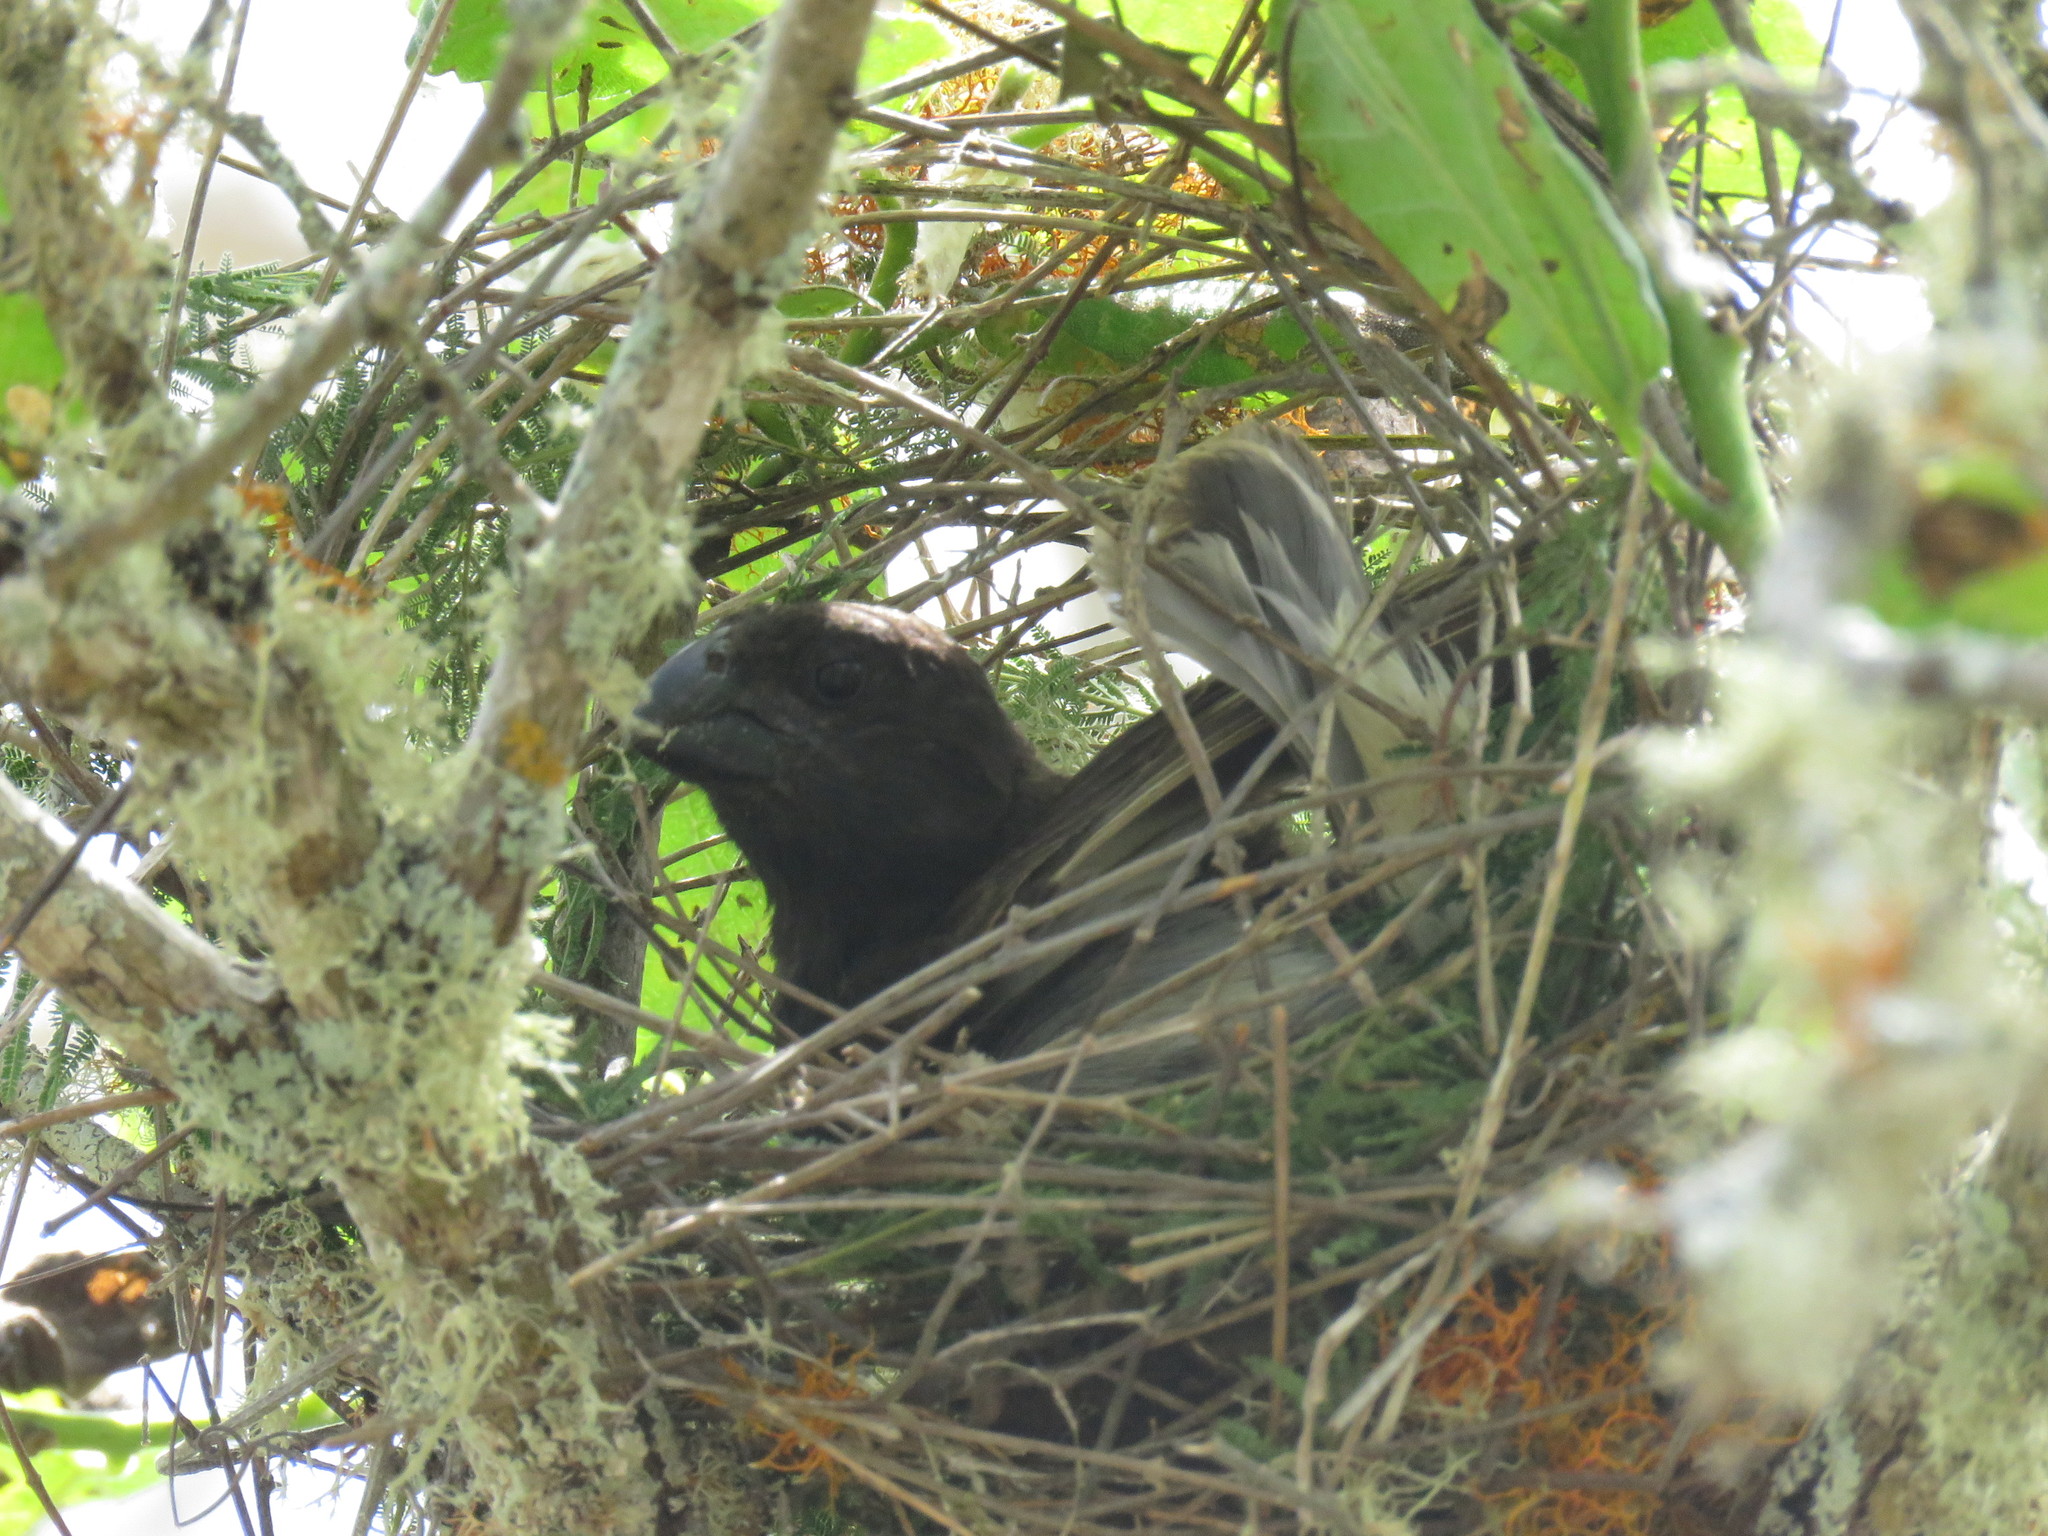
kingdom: Animalia
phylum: Chordata
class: Aves
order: Passeriformes
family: Thraupidae
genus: Platyspiza
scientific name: Platyspiza crassirostris
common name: Vegetarian finch
